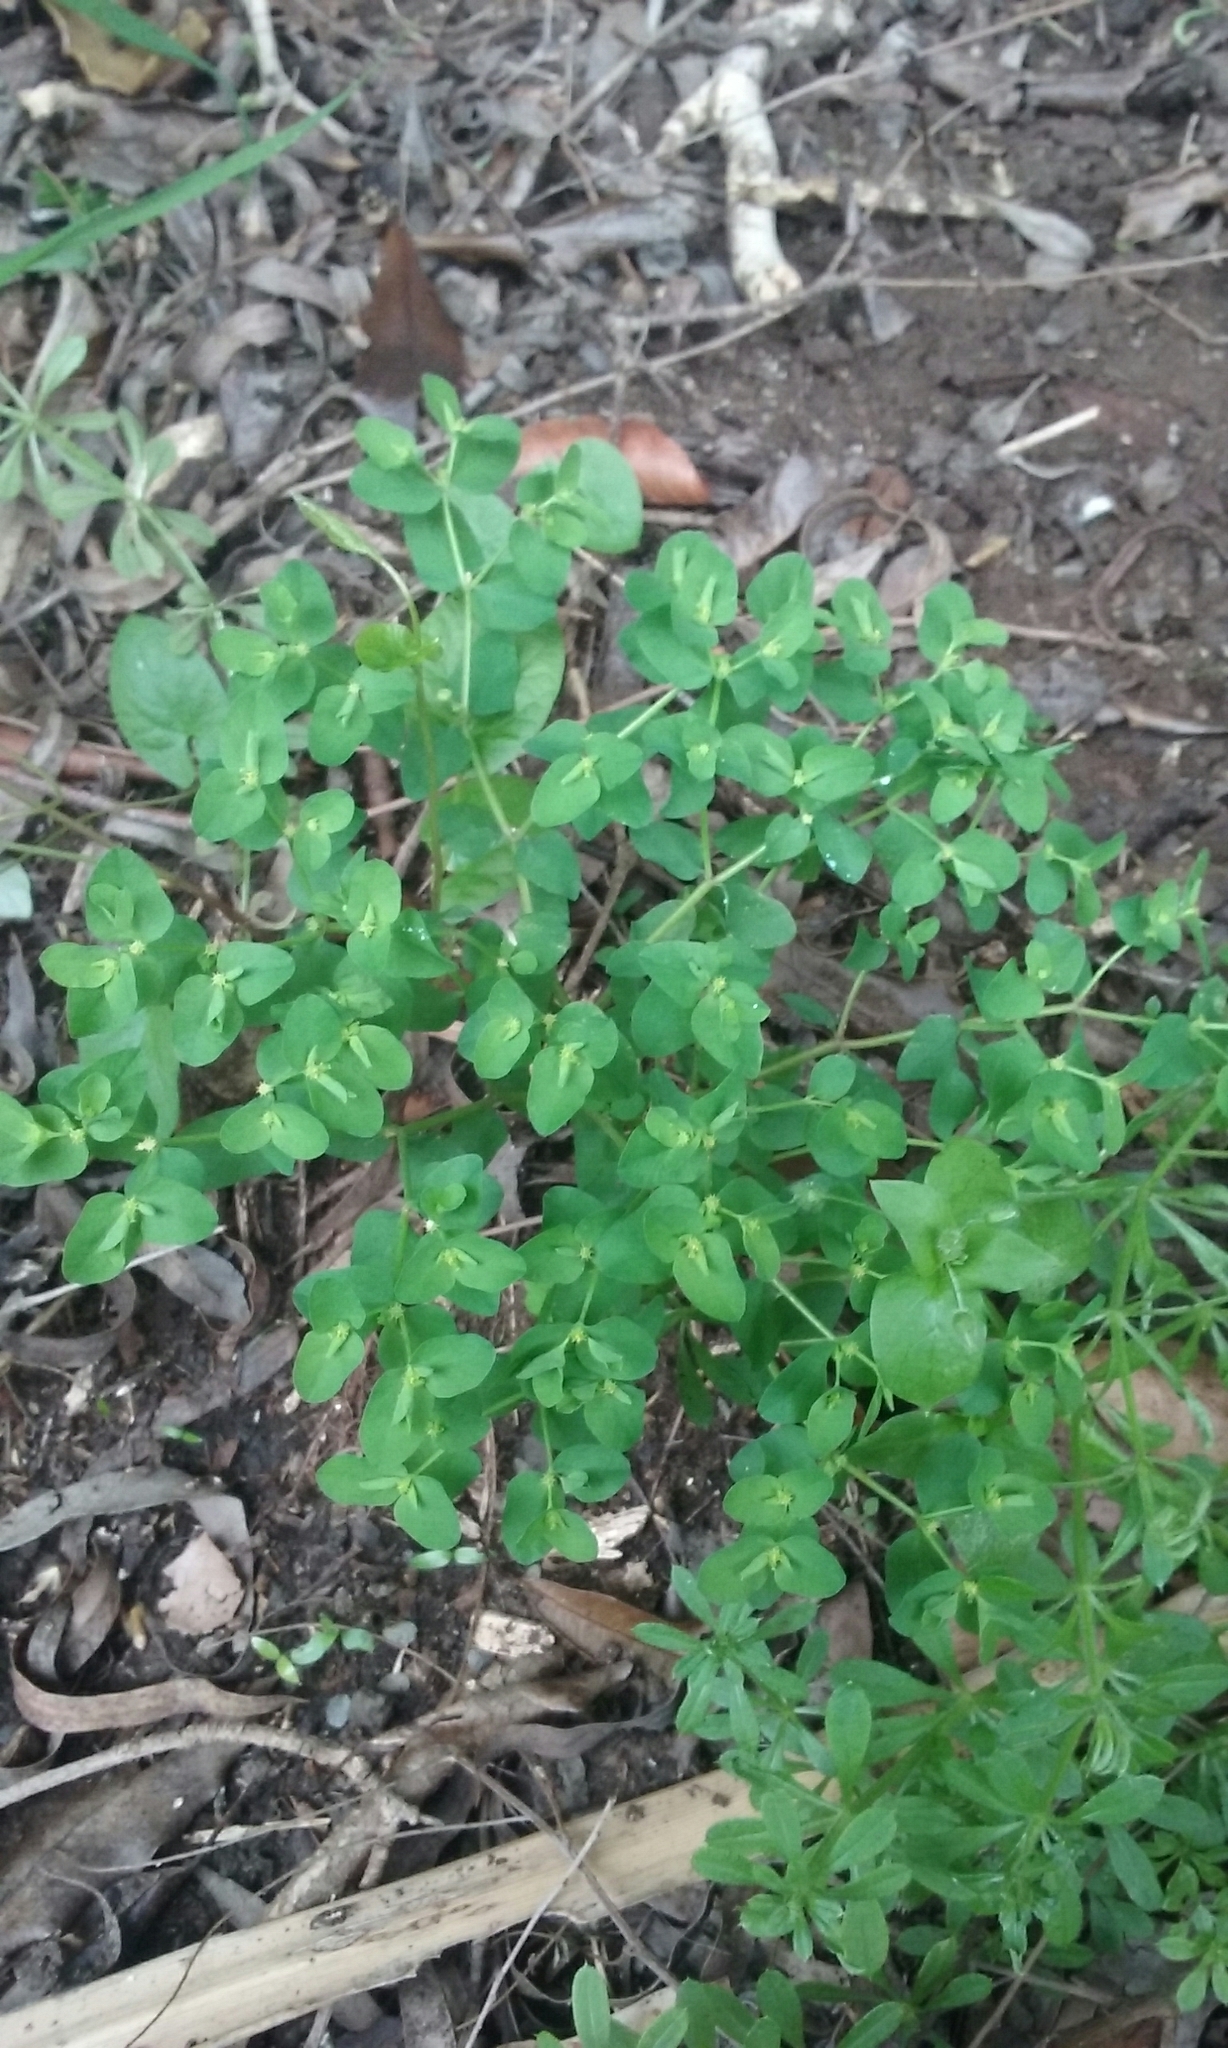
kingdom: Plantae
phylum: Tracheophyta
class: Magnoliopsida
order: Malpighiales
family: Euphorbiaceae
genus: Euphorbia
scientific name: Euphorbia peplus
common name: Petty spurge
